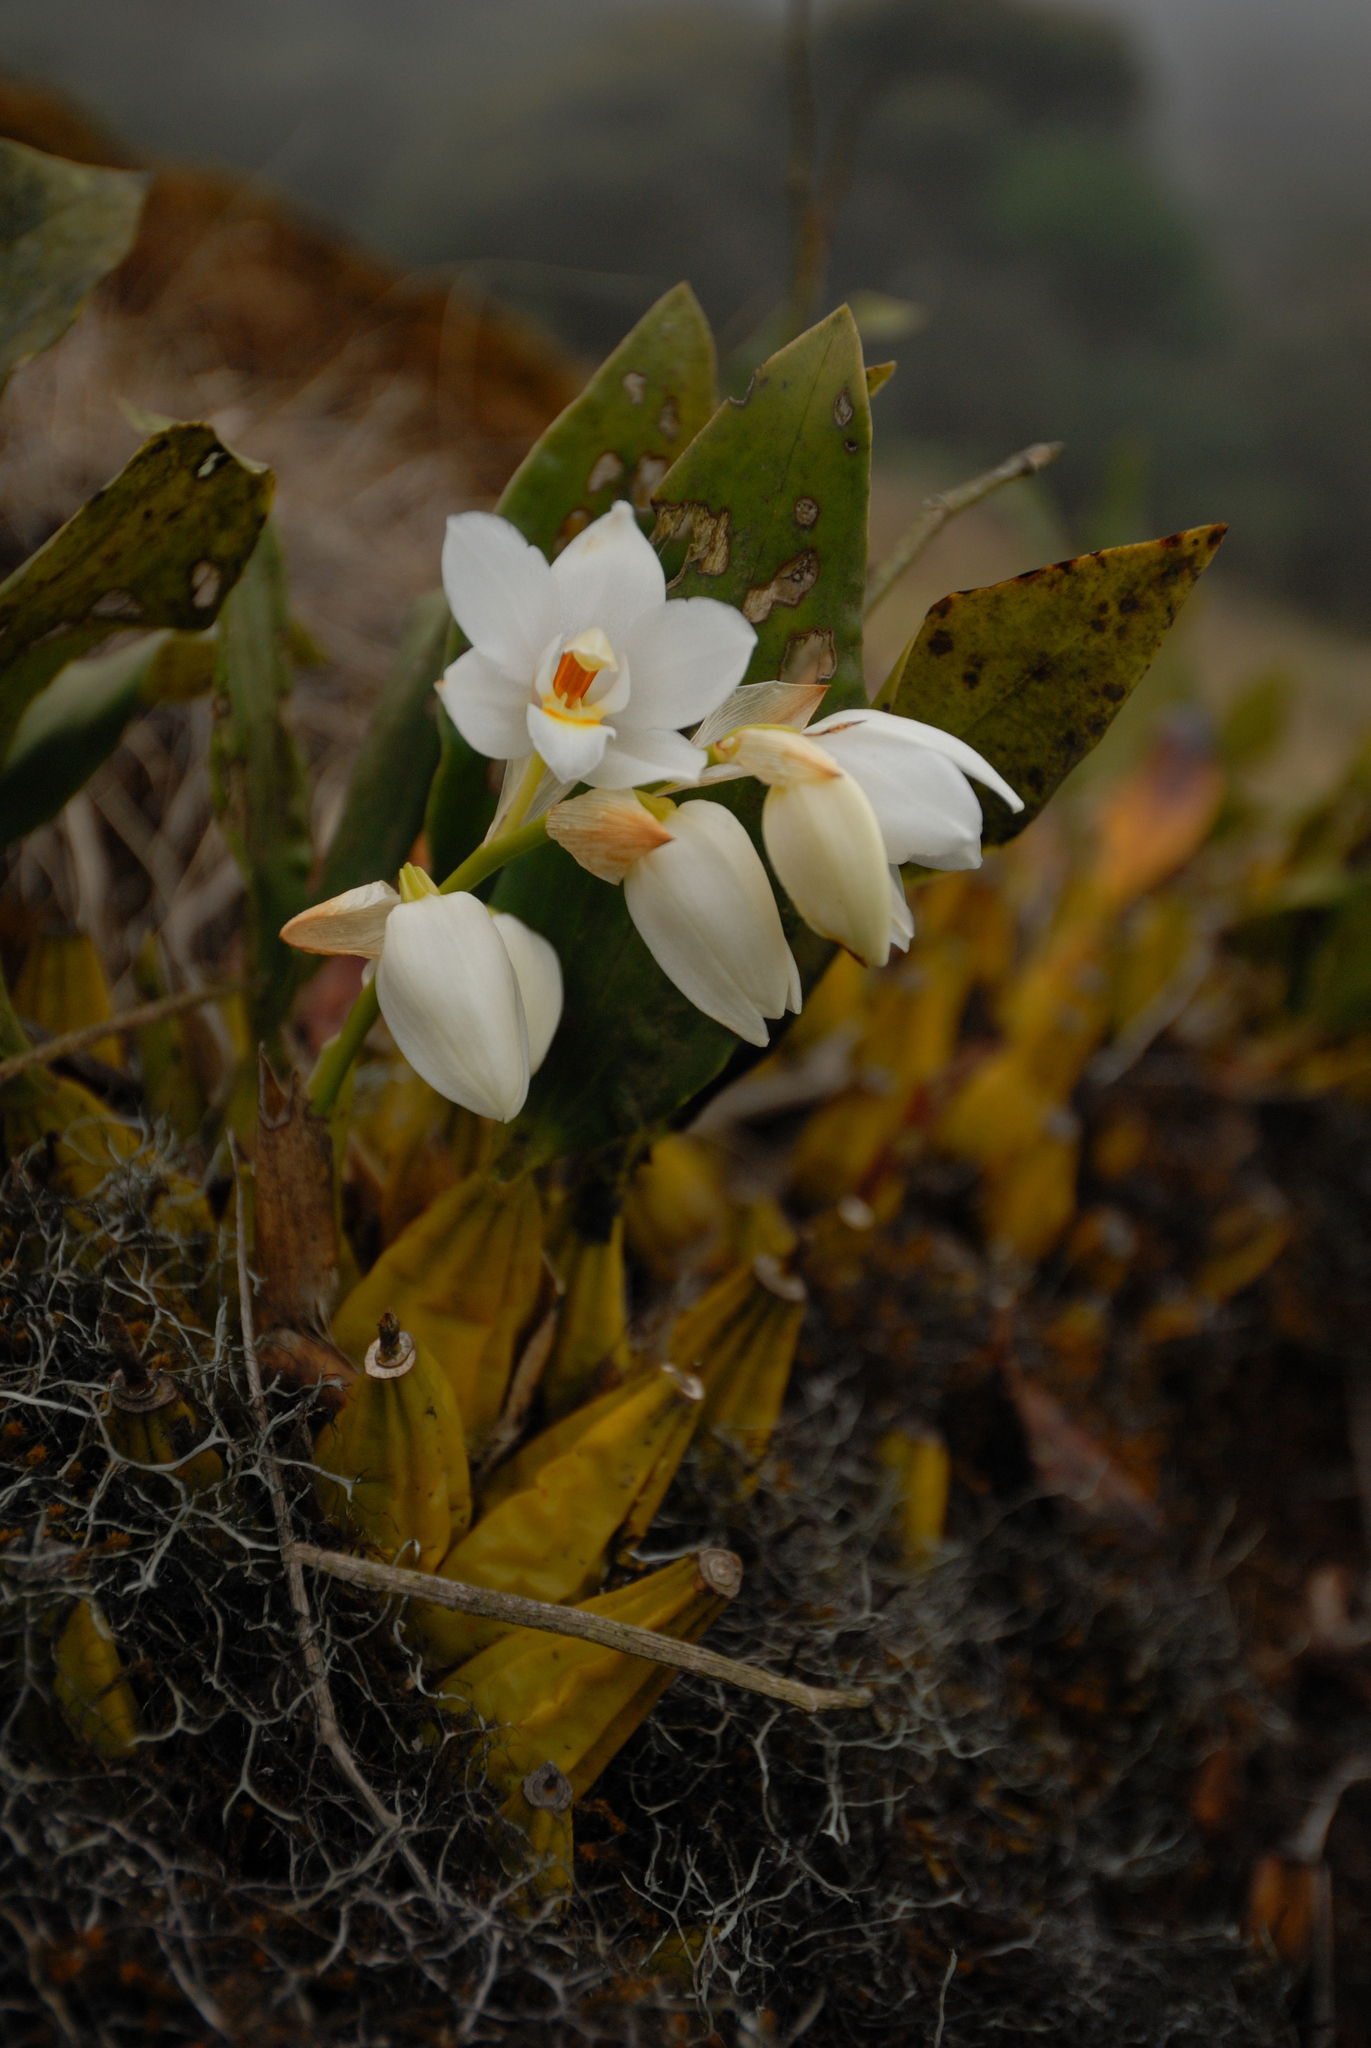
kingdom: Plantae
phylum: Tracheophyta
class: Liliopsida
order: Asparagales
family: Orchidaceae
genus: Coelogyne
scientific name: Coelogyne mossiae
